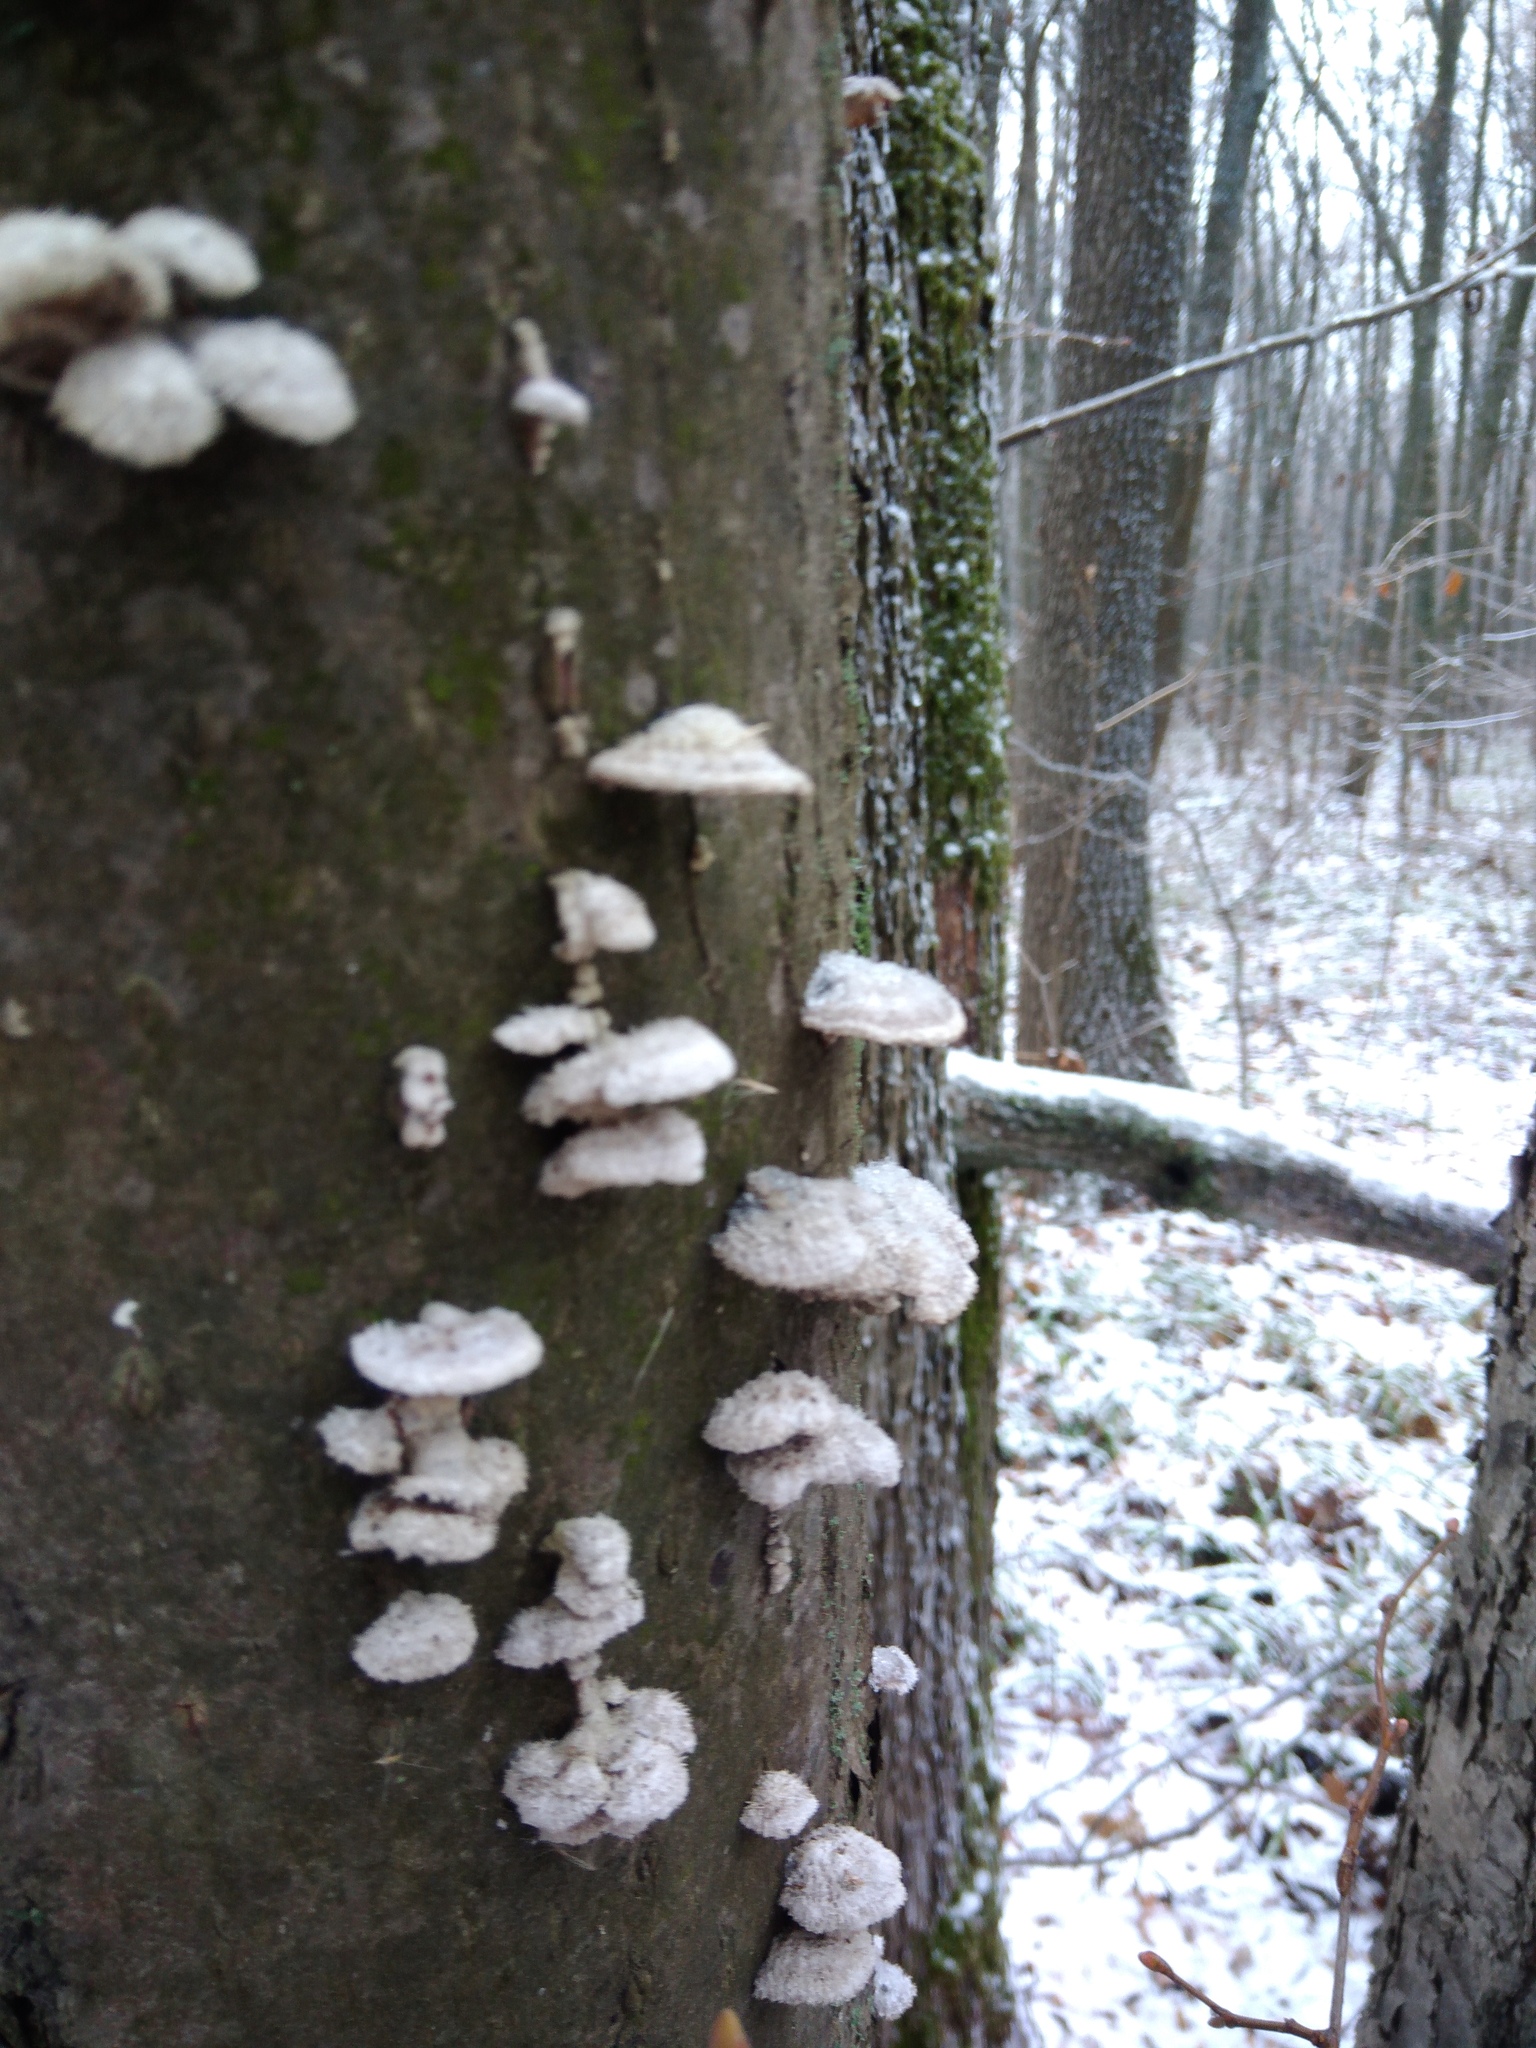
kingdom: Fungi
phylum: Basidiomycota
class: Agaricomycetes
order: Agaricales
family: Schizophyllaceae
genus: Schizophyllum
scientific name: Schizophyllum commune
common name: Common porecrust
